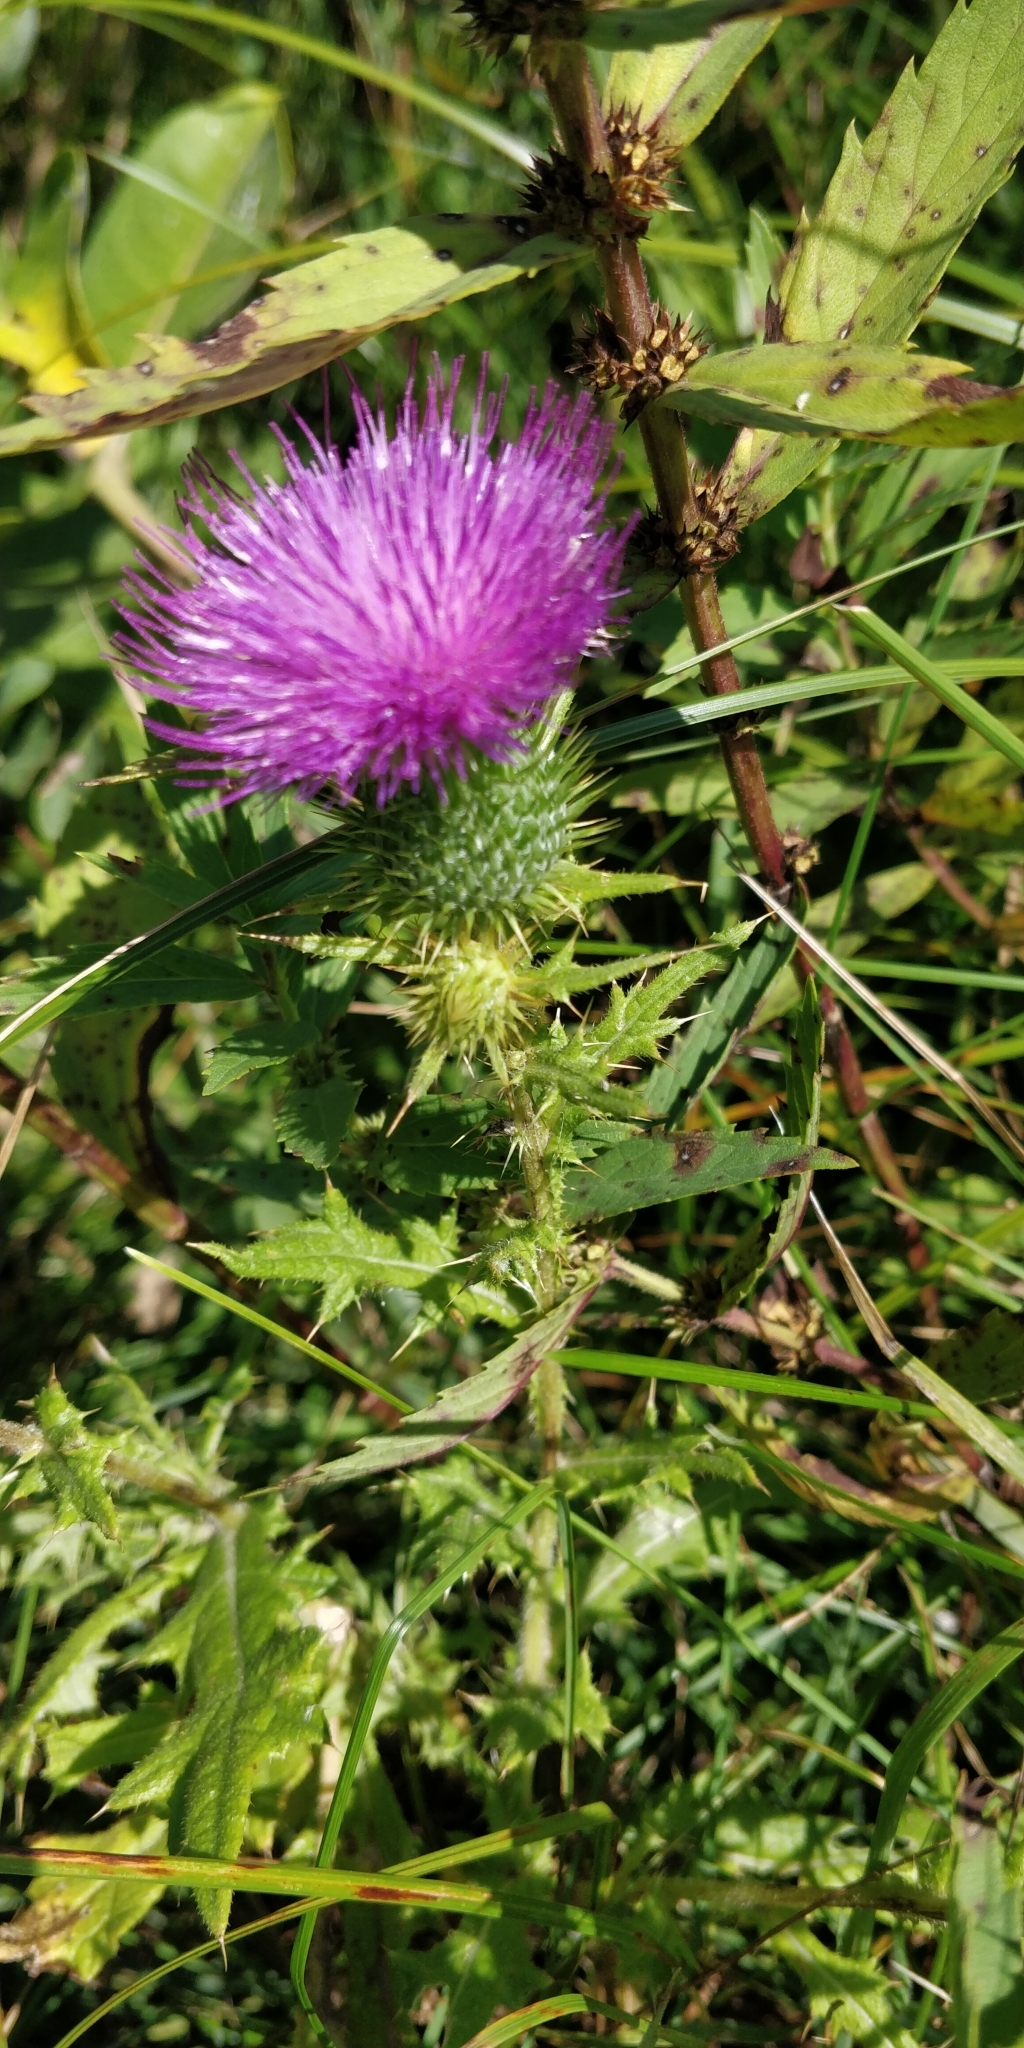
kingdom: Plantae
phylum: Tracheophyta
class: Magnoliopsida
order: Asterales
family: Asteraceae
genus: Cirsium
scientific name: Cirsium vulgare
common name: Bull thistle
